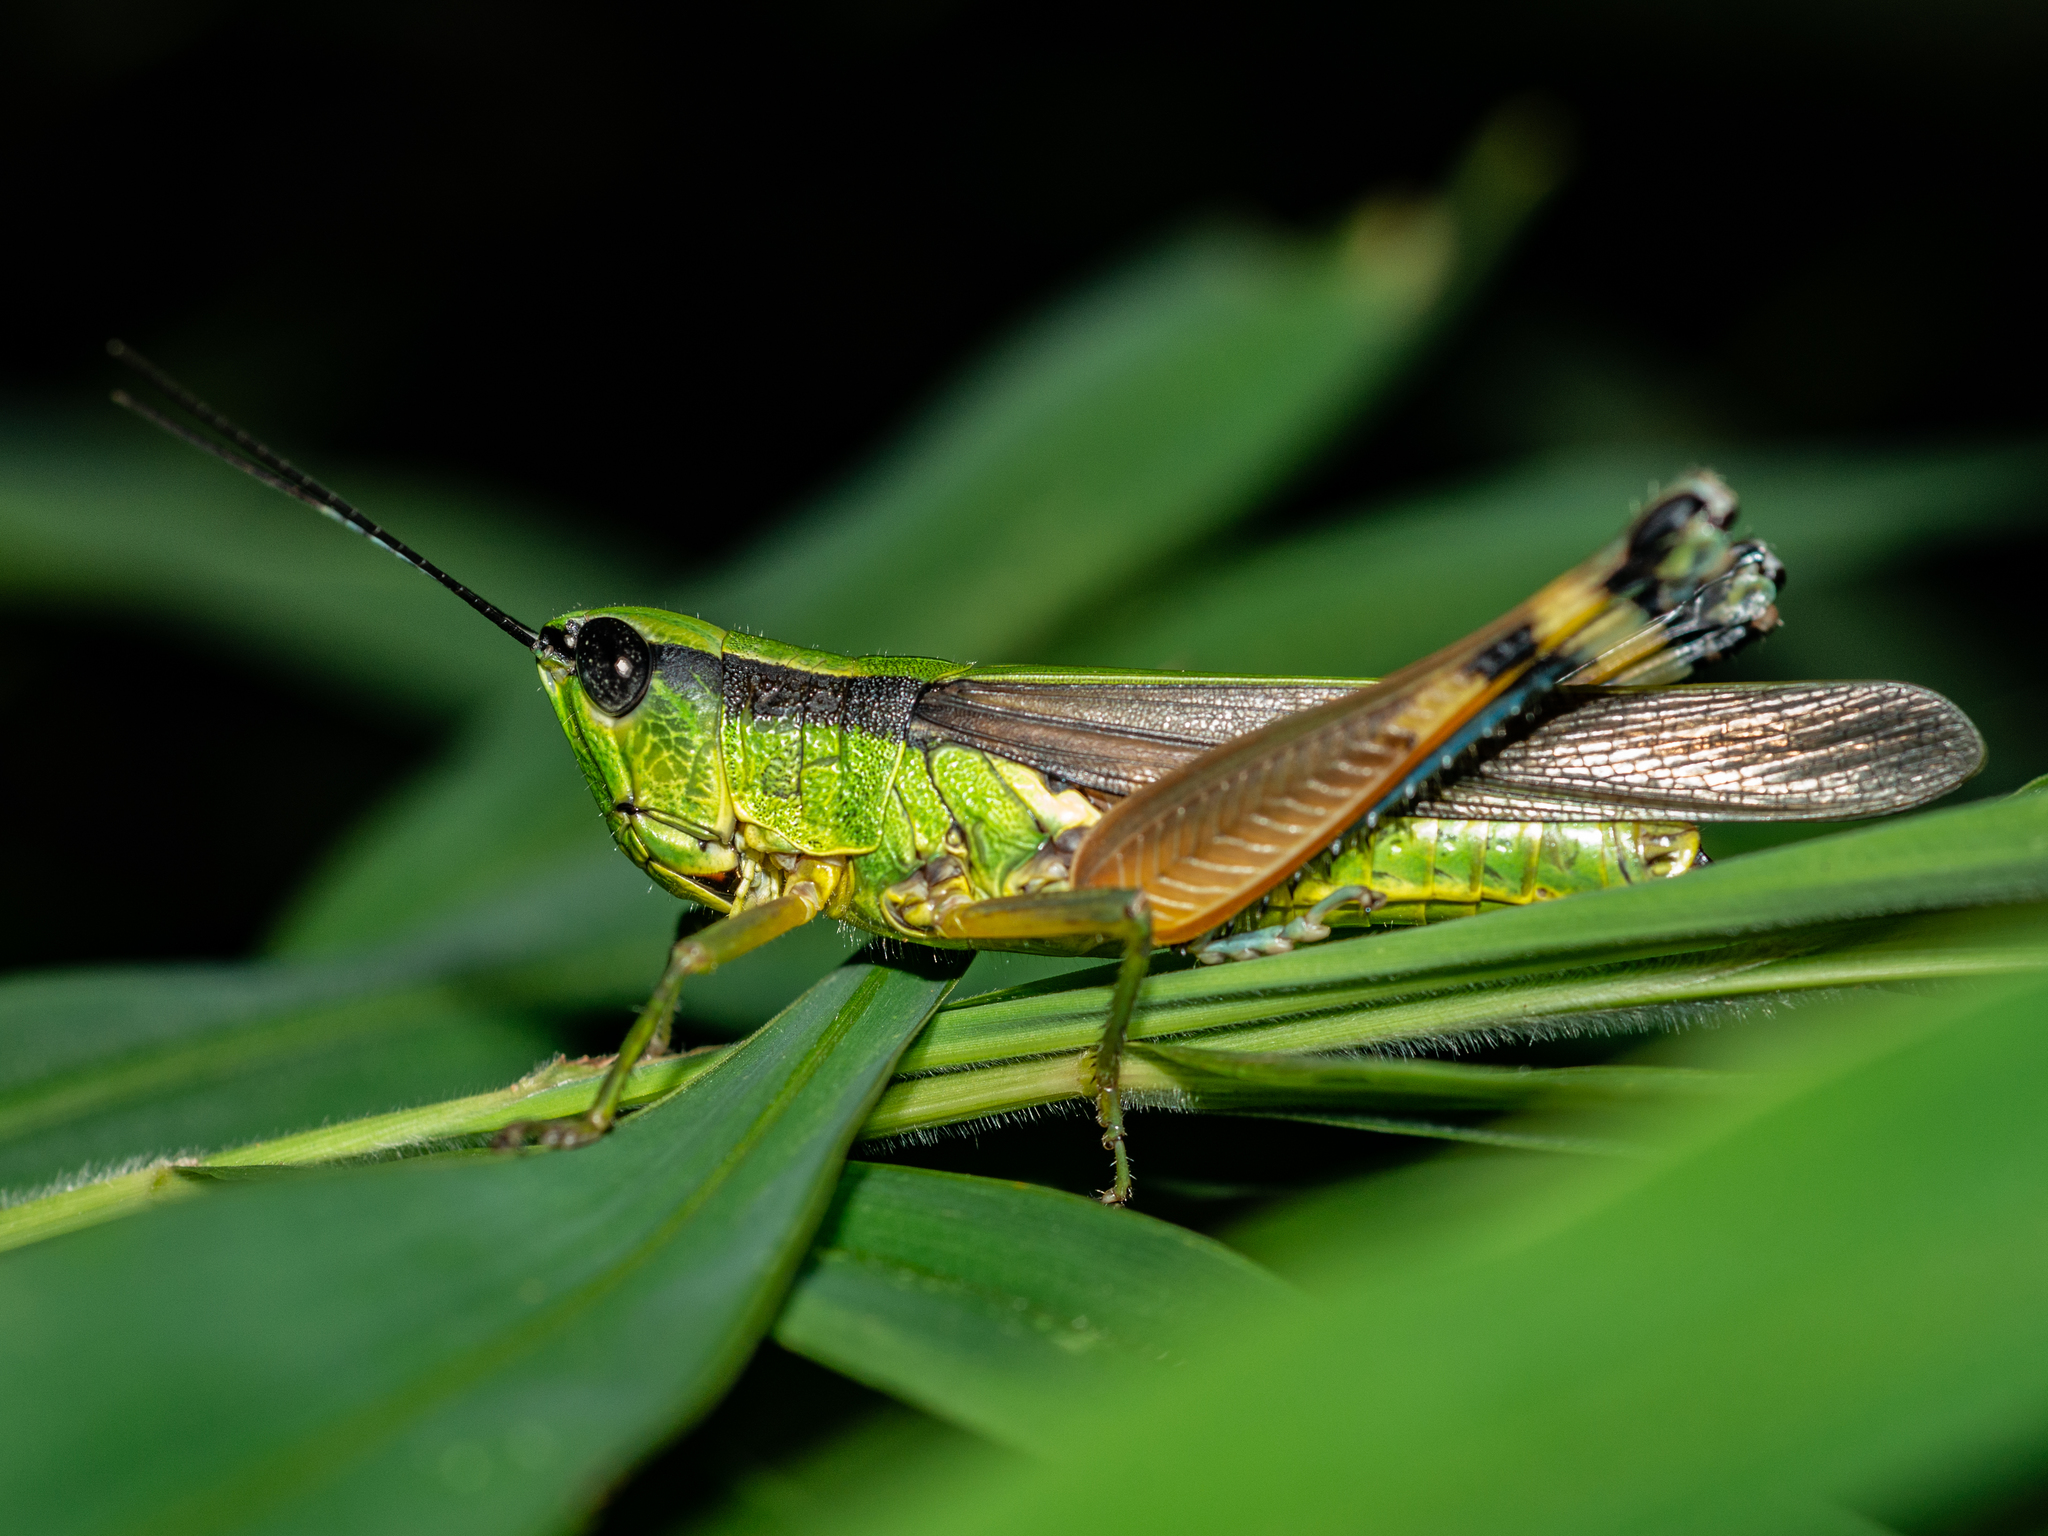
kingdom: Animalia
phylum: Arthropoda
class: Insecta
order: Orthoptera
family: Acrididae
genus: Ceracris
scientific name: Ceracris nigricornis
